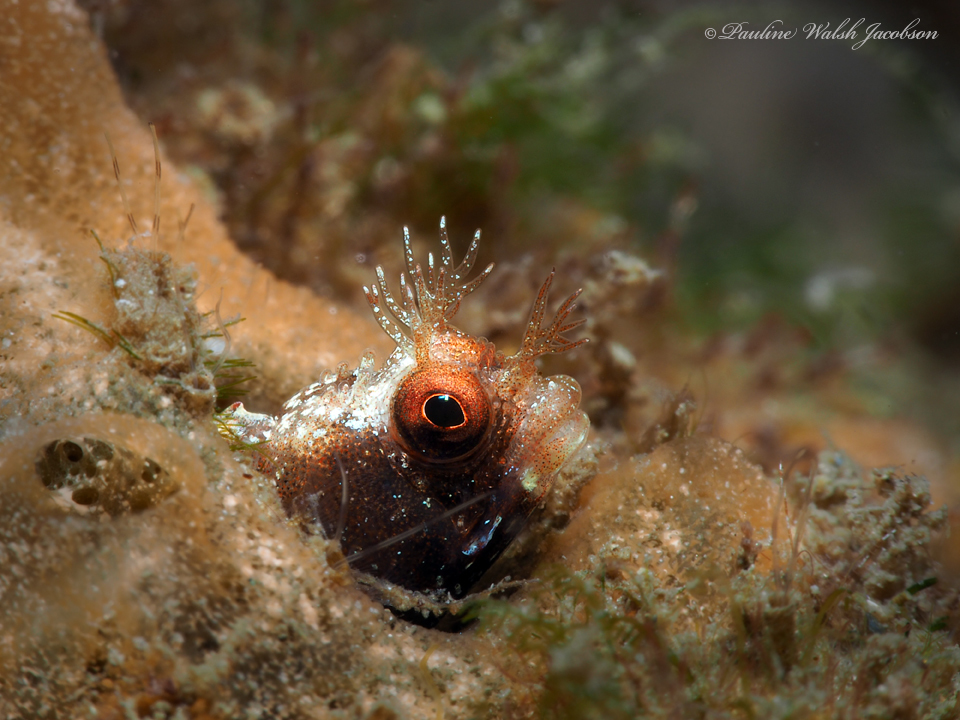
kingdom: Animalia
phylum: Chordata
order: Perciformes
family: Chaenopsidae
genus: Acanthemblemaria
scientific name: Acanthemblemaria aspera
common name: Roughhead blenny
